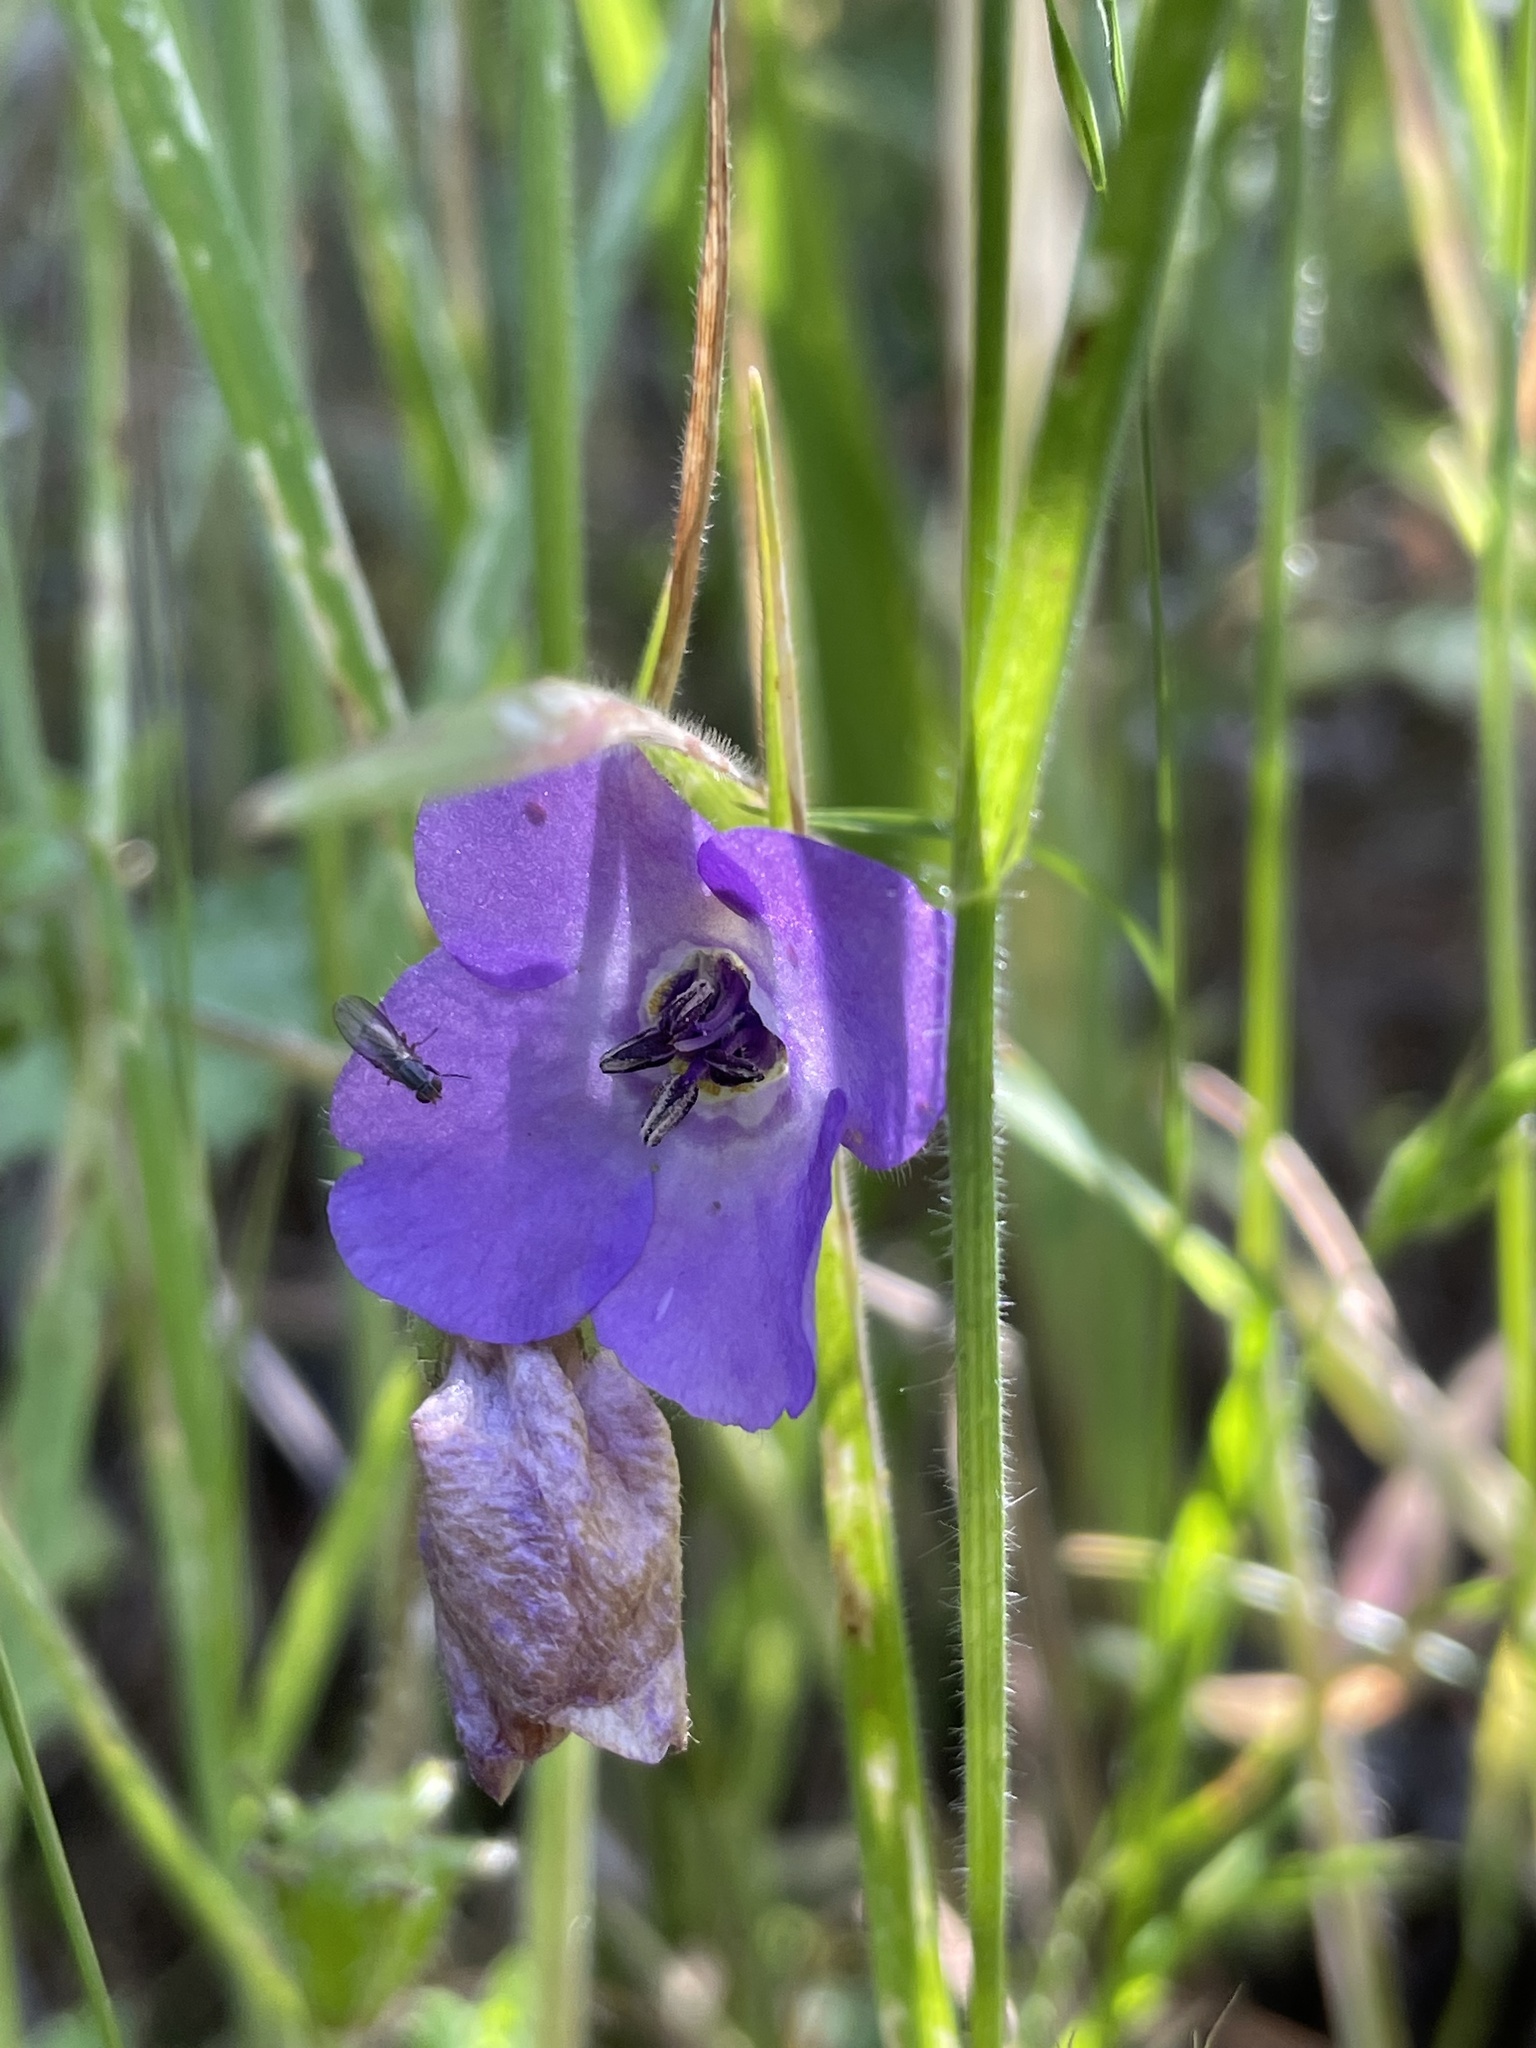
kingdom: Plantae
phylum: Tracheophyta
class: Magnoliopsida
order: Boraginales
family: Hydrophyllaceae
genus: Pholistoma
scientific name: Pholistoma auritum
